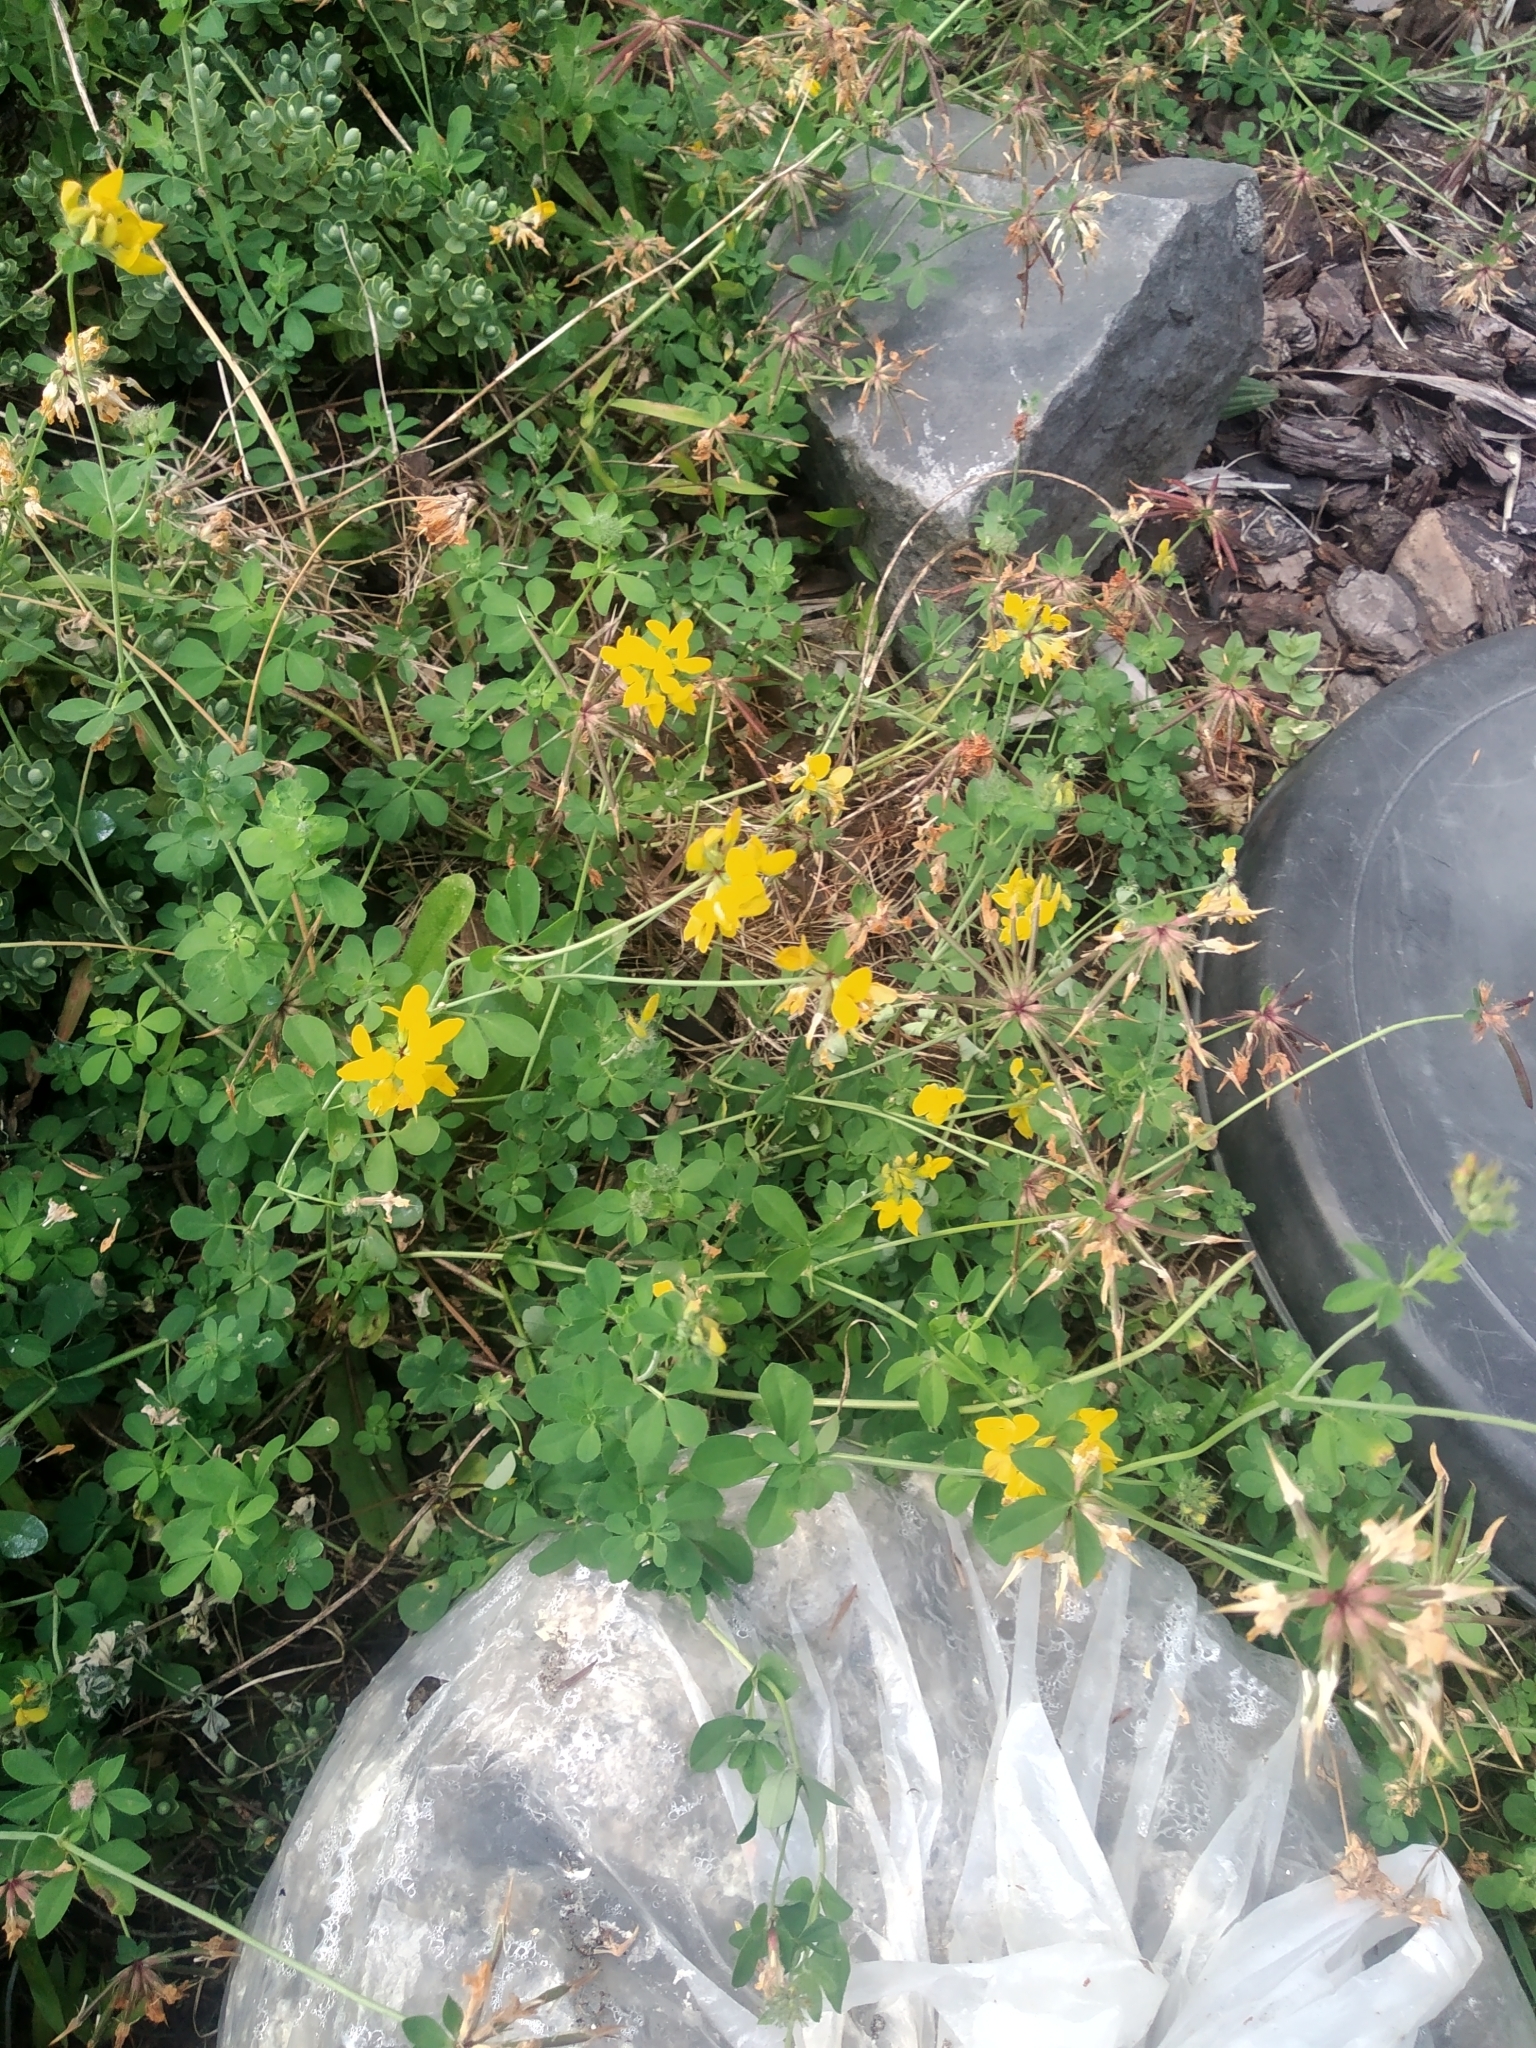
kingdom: Plantae
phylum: Tracheophyta
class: Magnoliopsida
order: Fabales
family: Fabaceae
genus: Lotus
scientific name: Lotus pedunculatus
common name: Greater birdsfoot-trefoil
